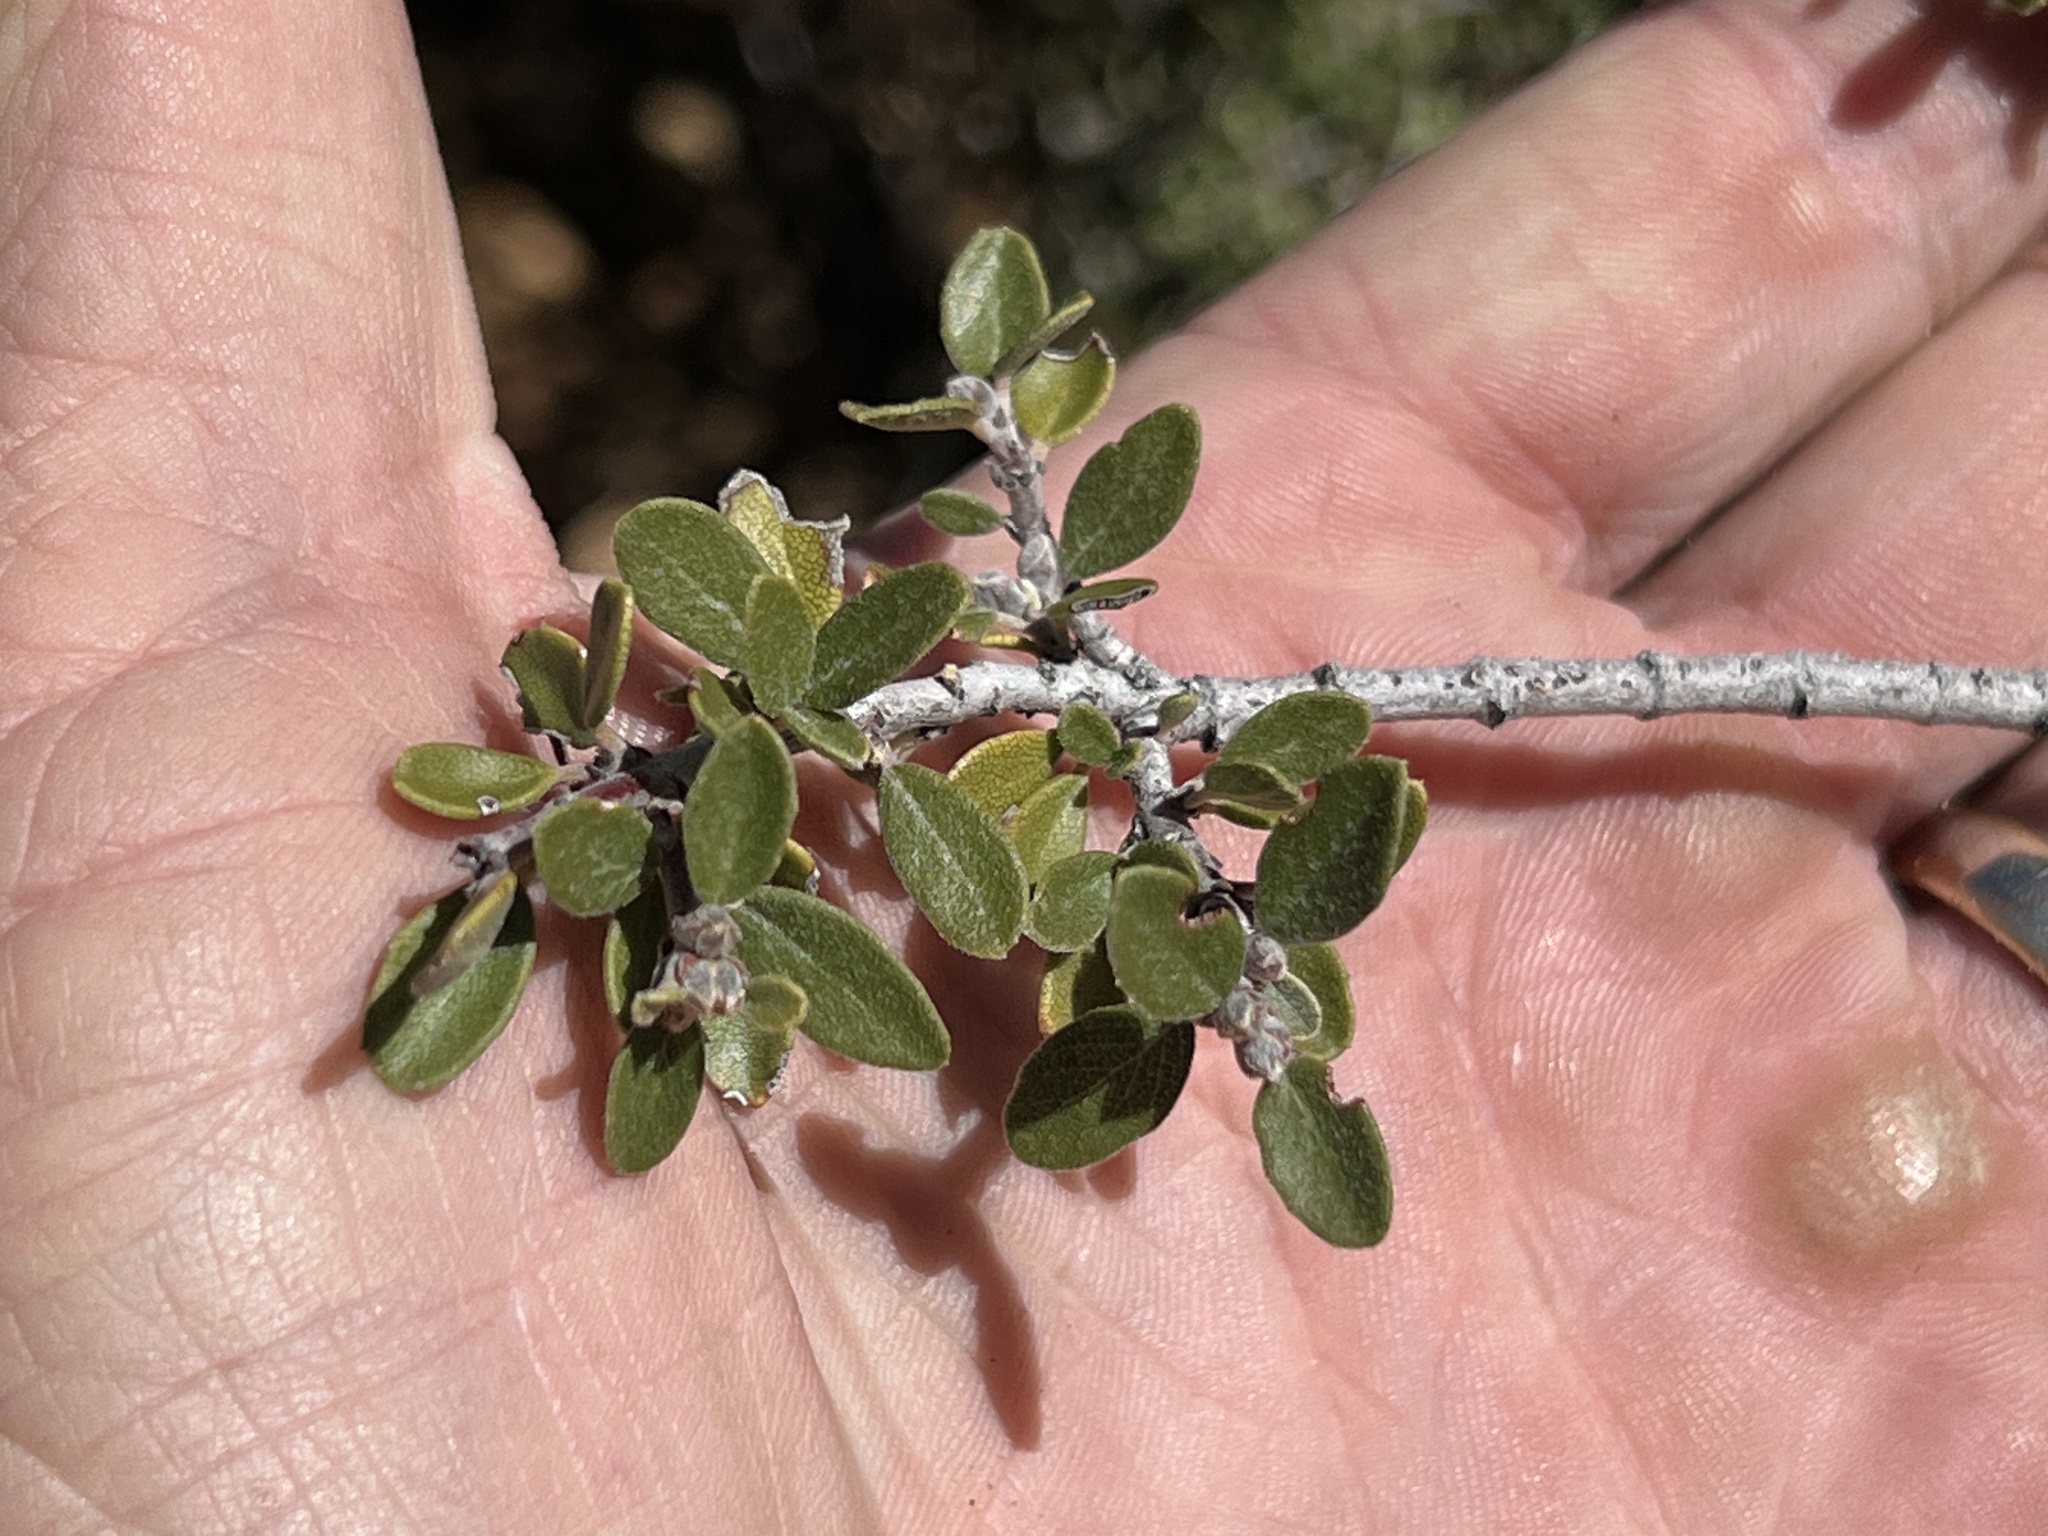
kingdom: Plantae
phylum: Tracheophyta
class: Magnoliopsida
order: Rosales
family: Rhamnaceae
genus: Ceanothus
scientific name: Ceanothus pauciflorus
